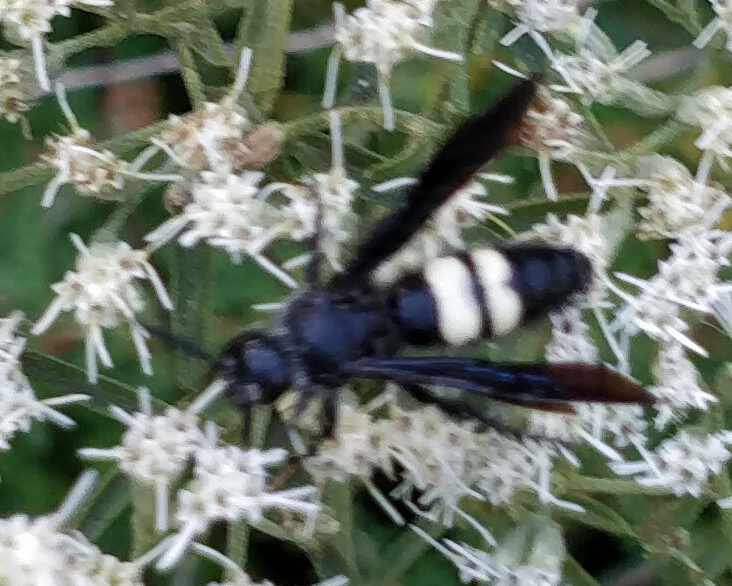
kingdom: Animalia
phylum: Arthropoda
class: Insecta
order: Hymenoptera
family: Scoliidae
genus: Scolia
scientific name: Scolia bicincta
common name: Double-banded scoliid wasp
